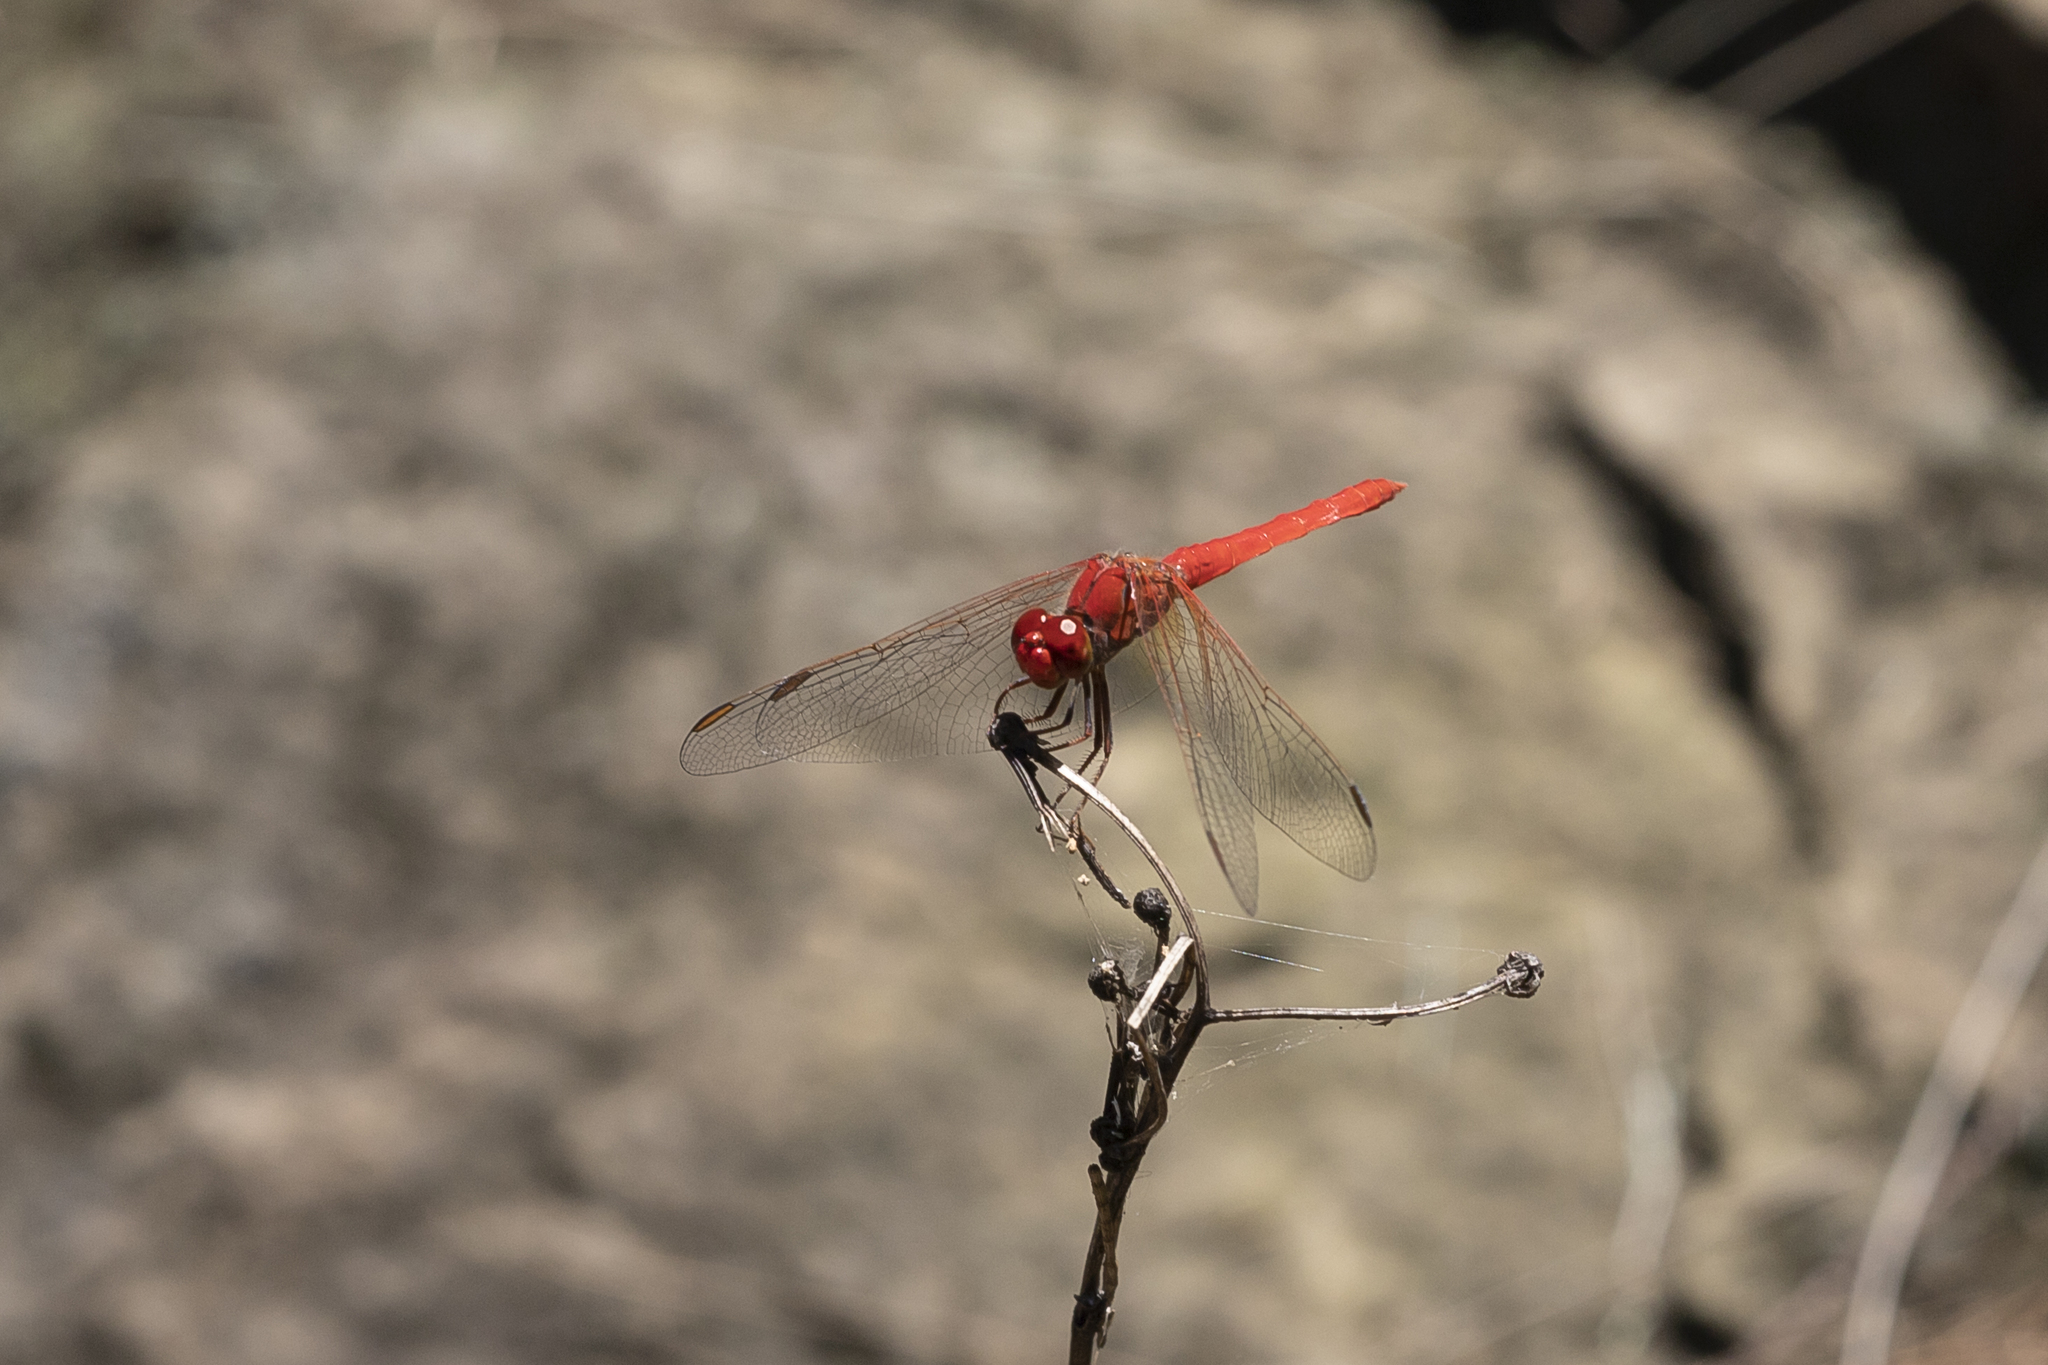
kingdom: Animalia
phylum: Arthropoda
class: Insecta
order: Odonata
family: Libellulidae
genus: Diplacodes
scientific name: Diplacodes haematodes
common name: Scarlet percher
